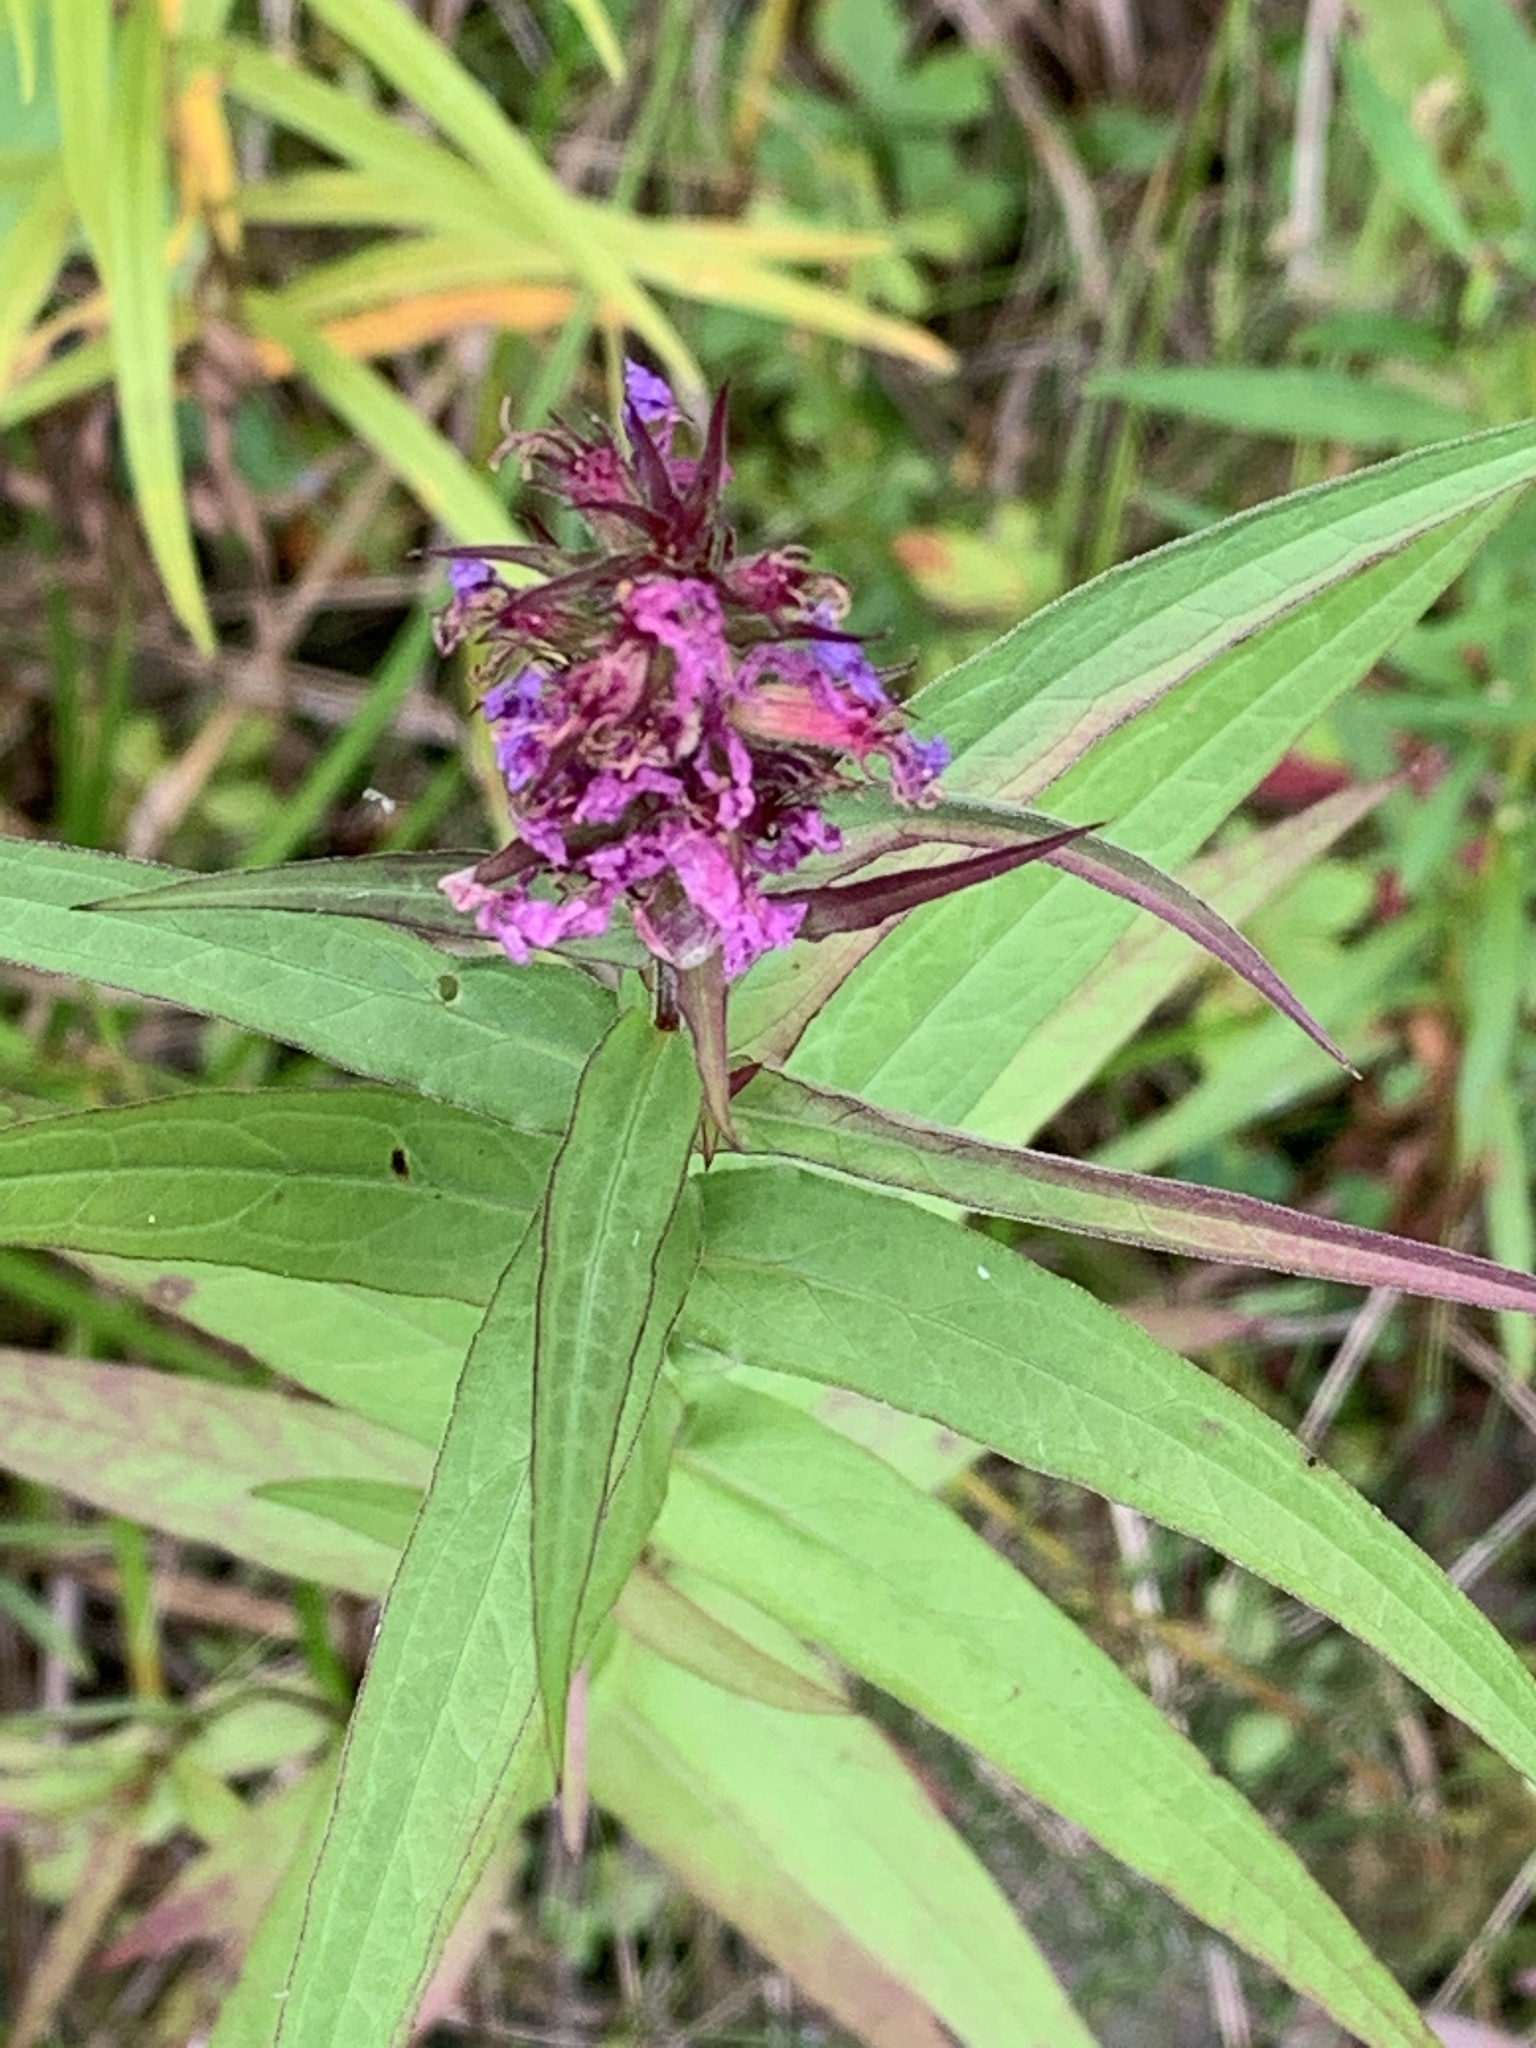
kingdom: Plantae
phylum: Tracheophyta
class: Magnoliopsida
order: Myrtales
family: Lythraceae
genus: Lythrum
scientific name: Lythrum salicaria
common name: Purple loosestrife
